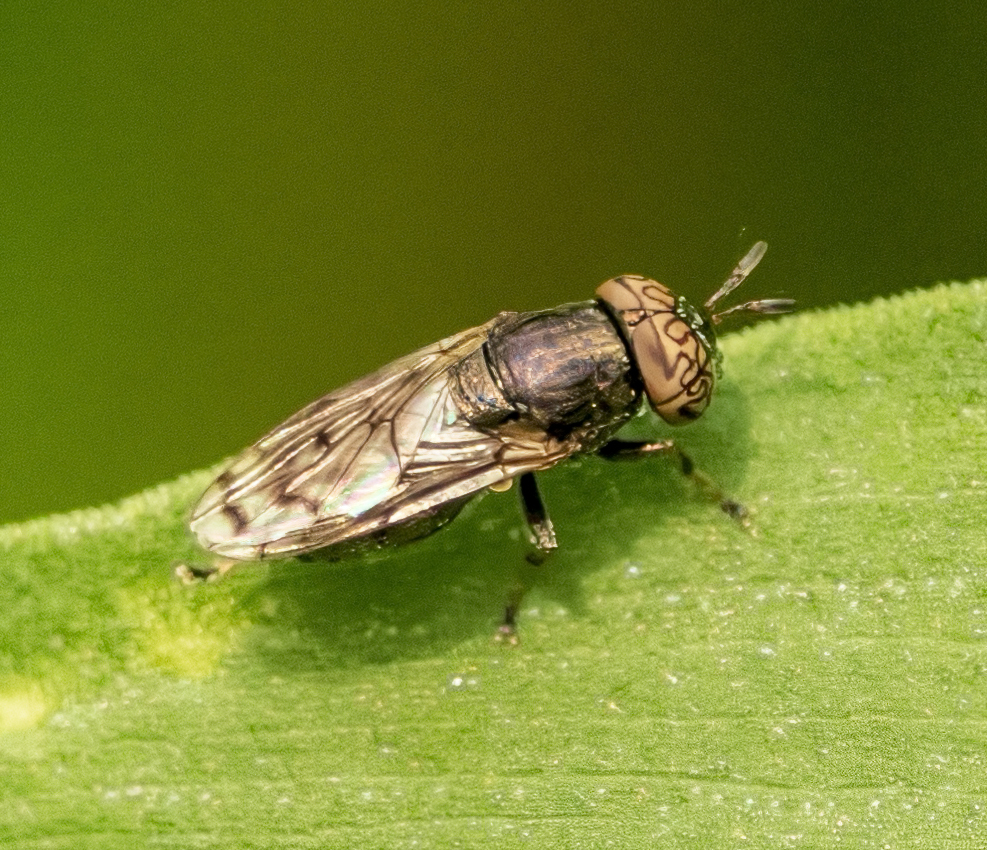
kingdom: Animalia
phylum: Arthropoda
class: Insecta
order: Diptera
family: Syrphidae
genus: Orthonevra
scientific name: Orthonevra nitida
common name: Wavy mucksucker
